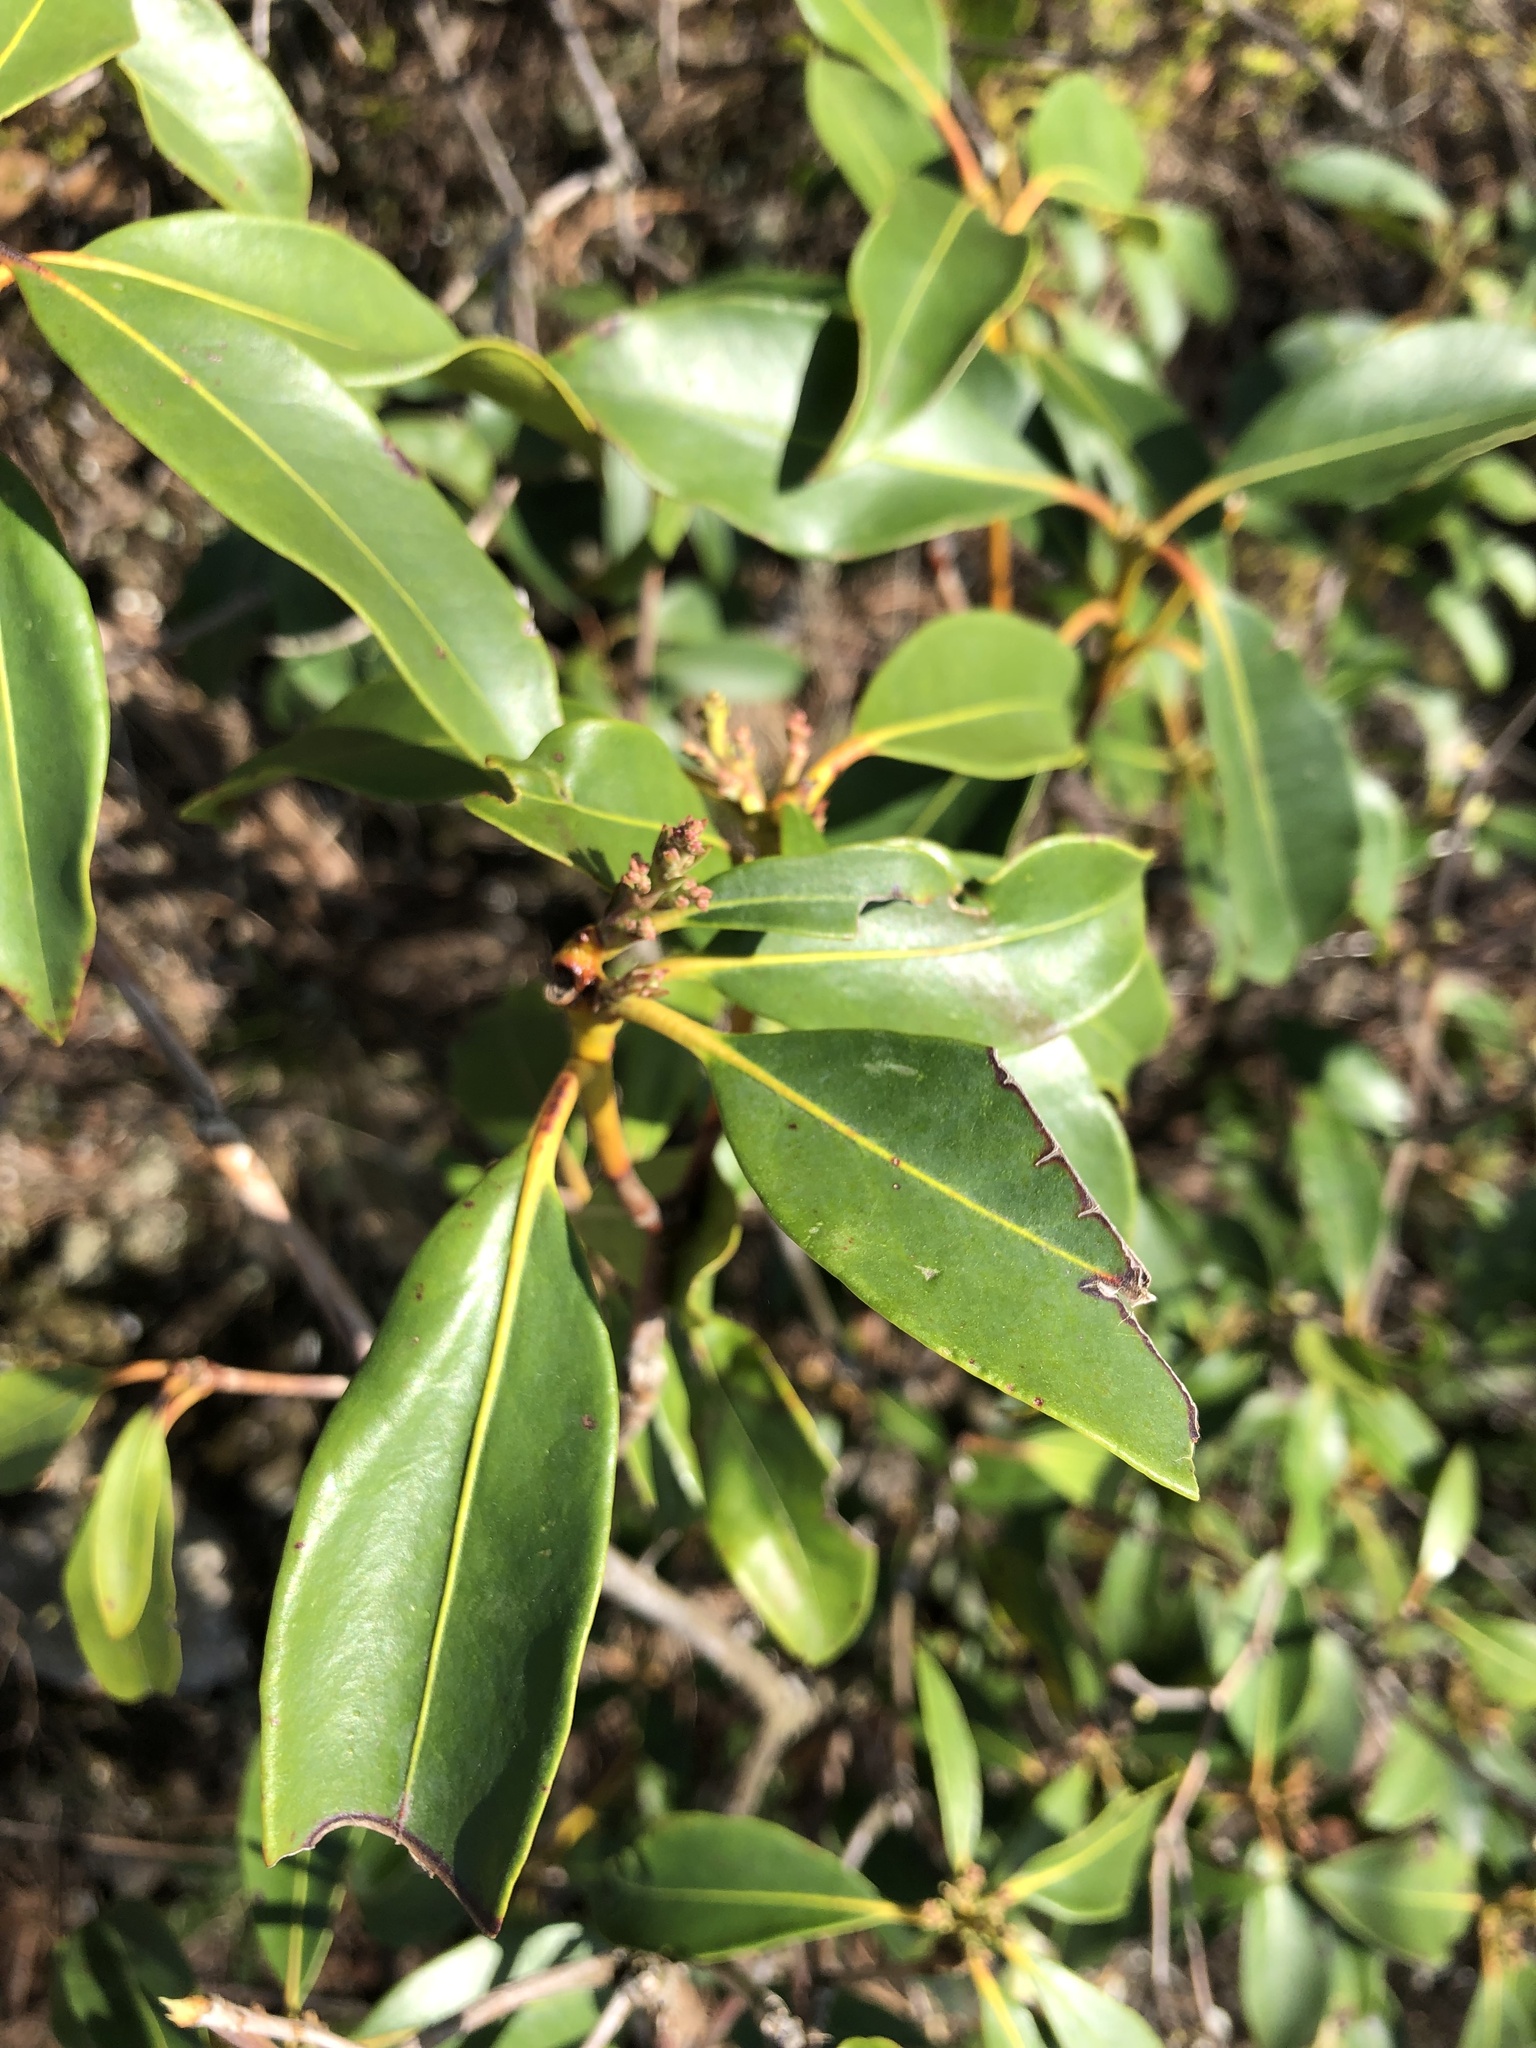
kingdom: Plantae
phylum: Tracheophyta
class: Magnoliopsida
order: Ericales
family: Ericaceae
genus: Kalmia
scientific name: Kalmia latifolia
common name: Mountain-laurel
